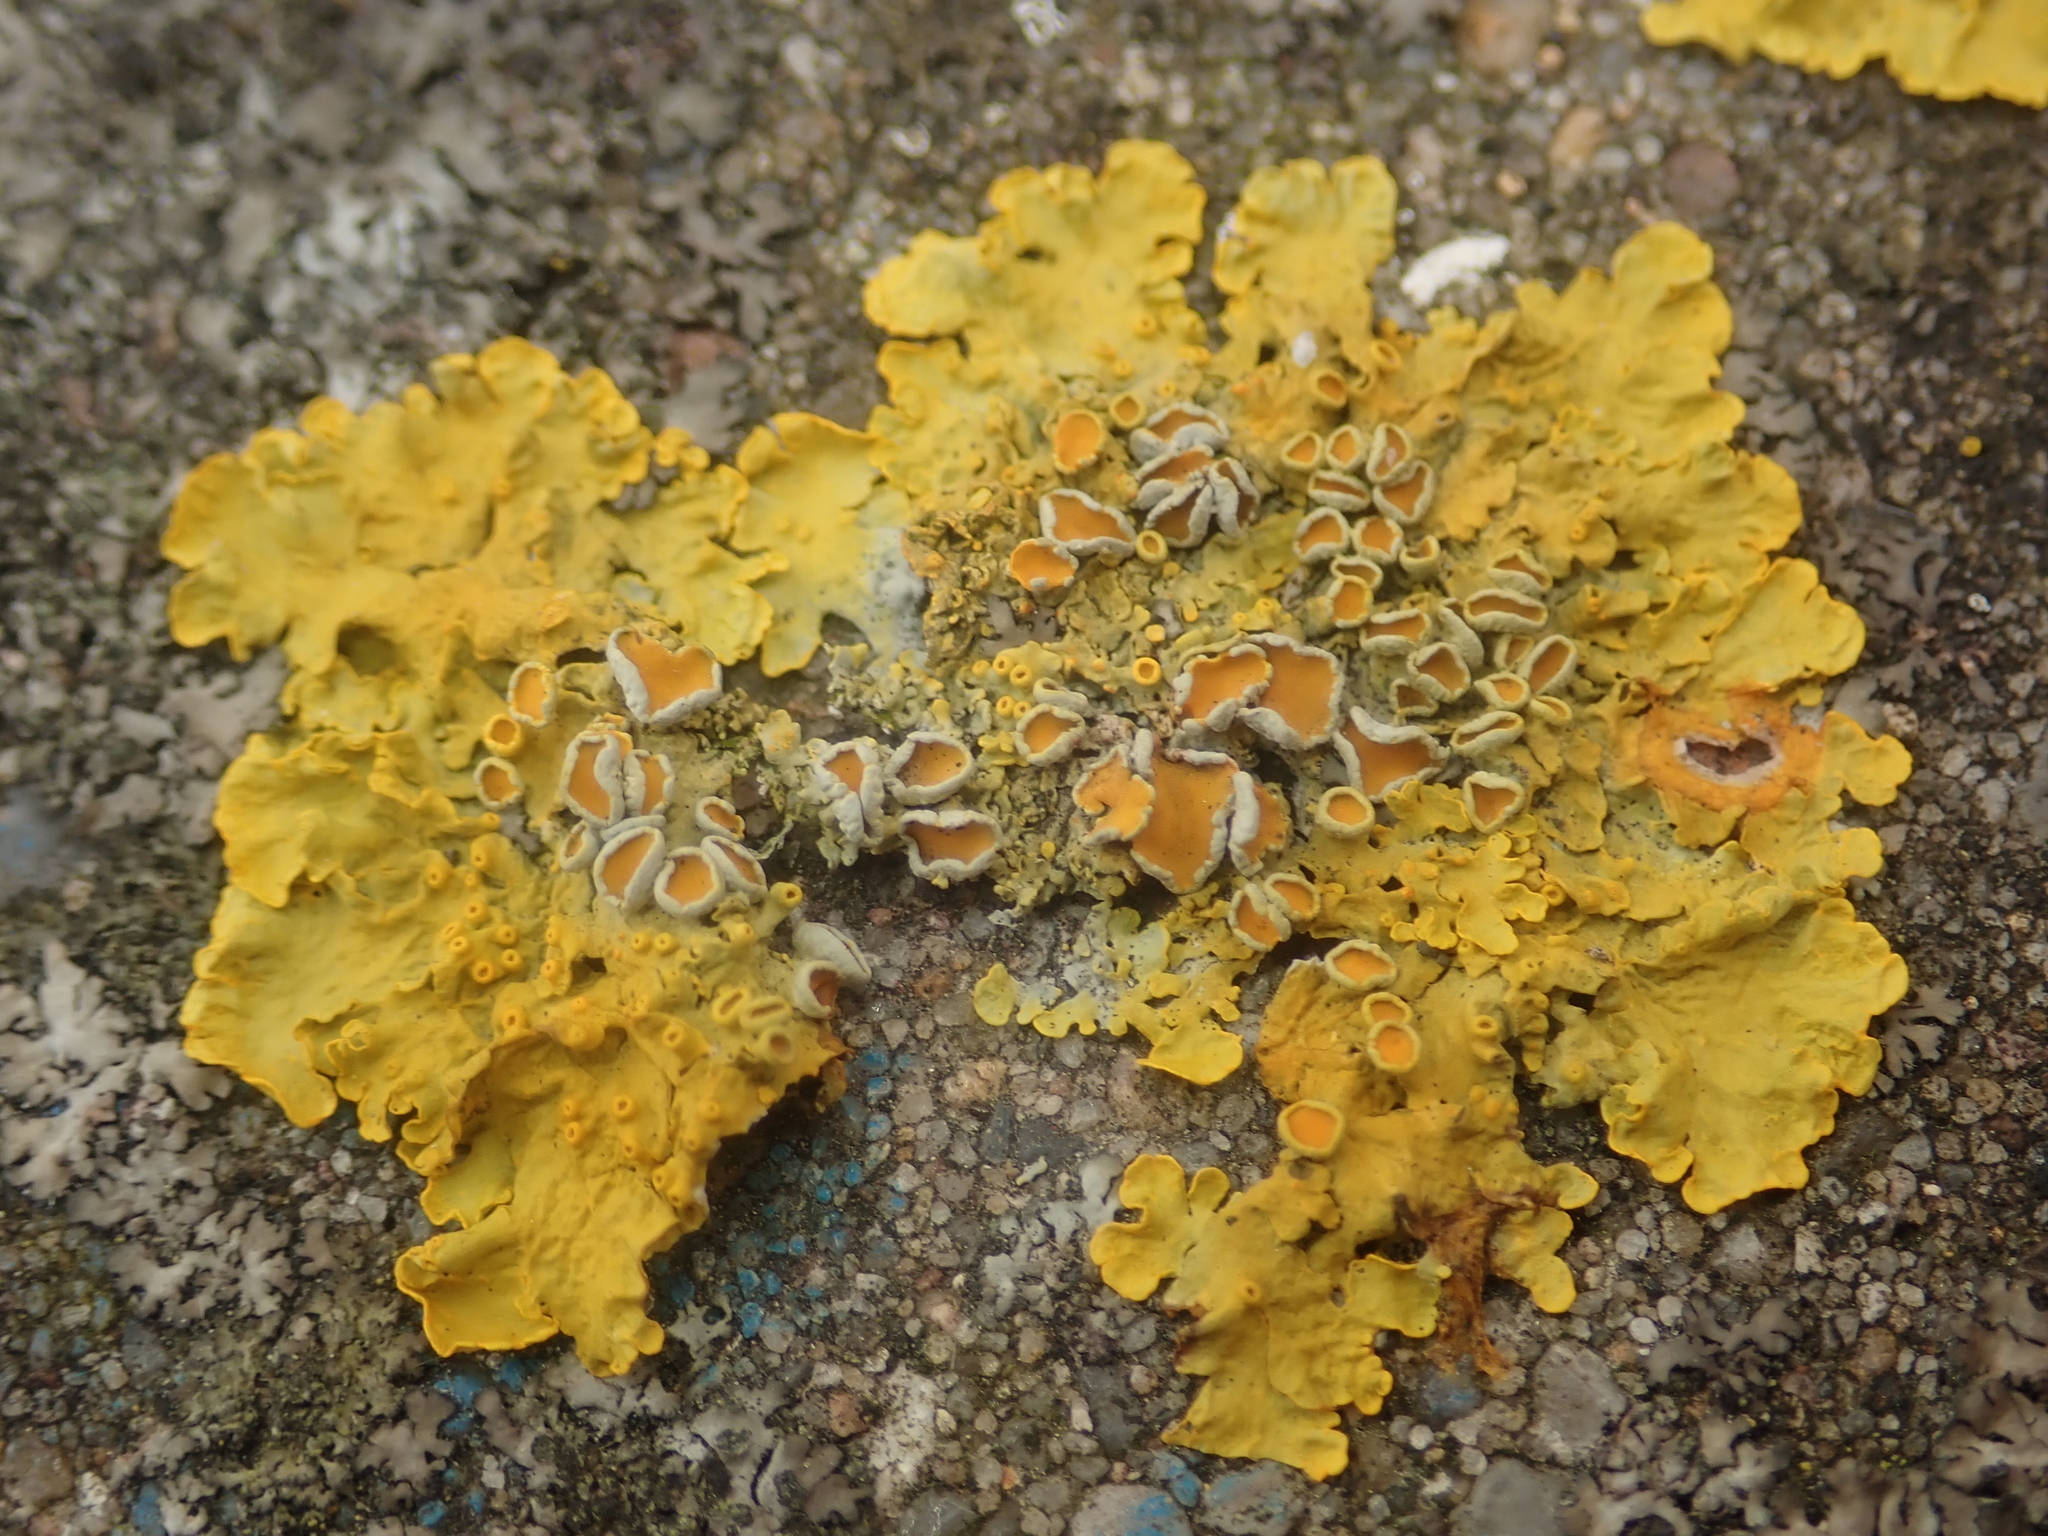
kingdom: Fungi
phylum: Ascomycota
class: Lecanoromycetes
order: Teloschistales
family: Teloschistaceae
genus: Xanthoria
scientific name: Xanthoria parietina
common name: Common orange lichen
